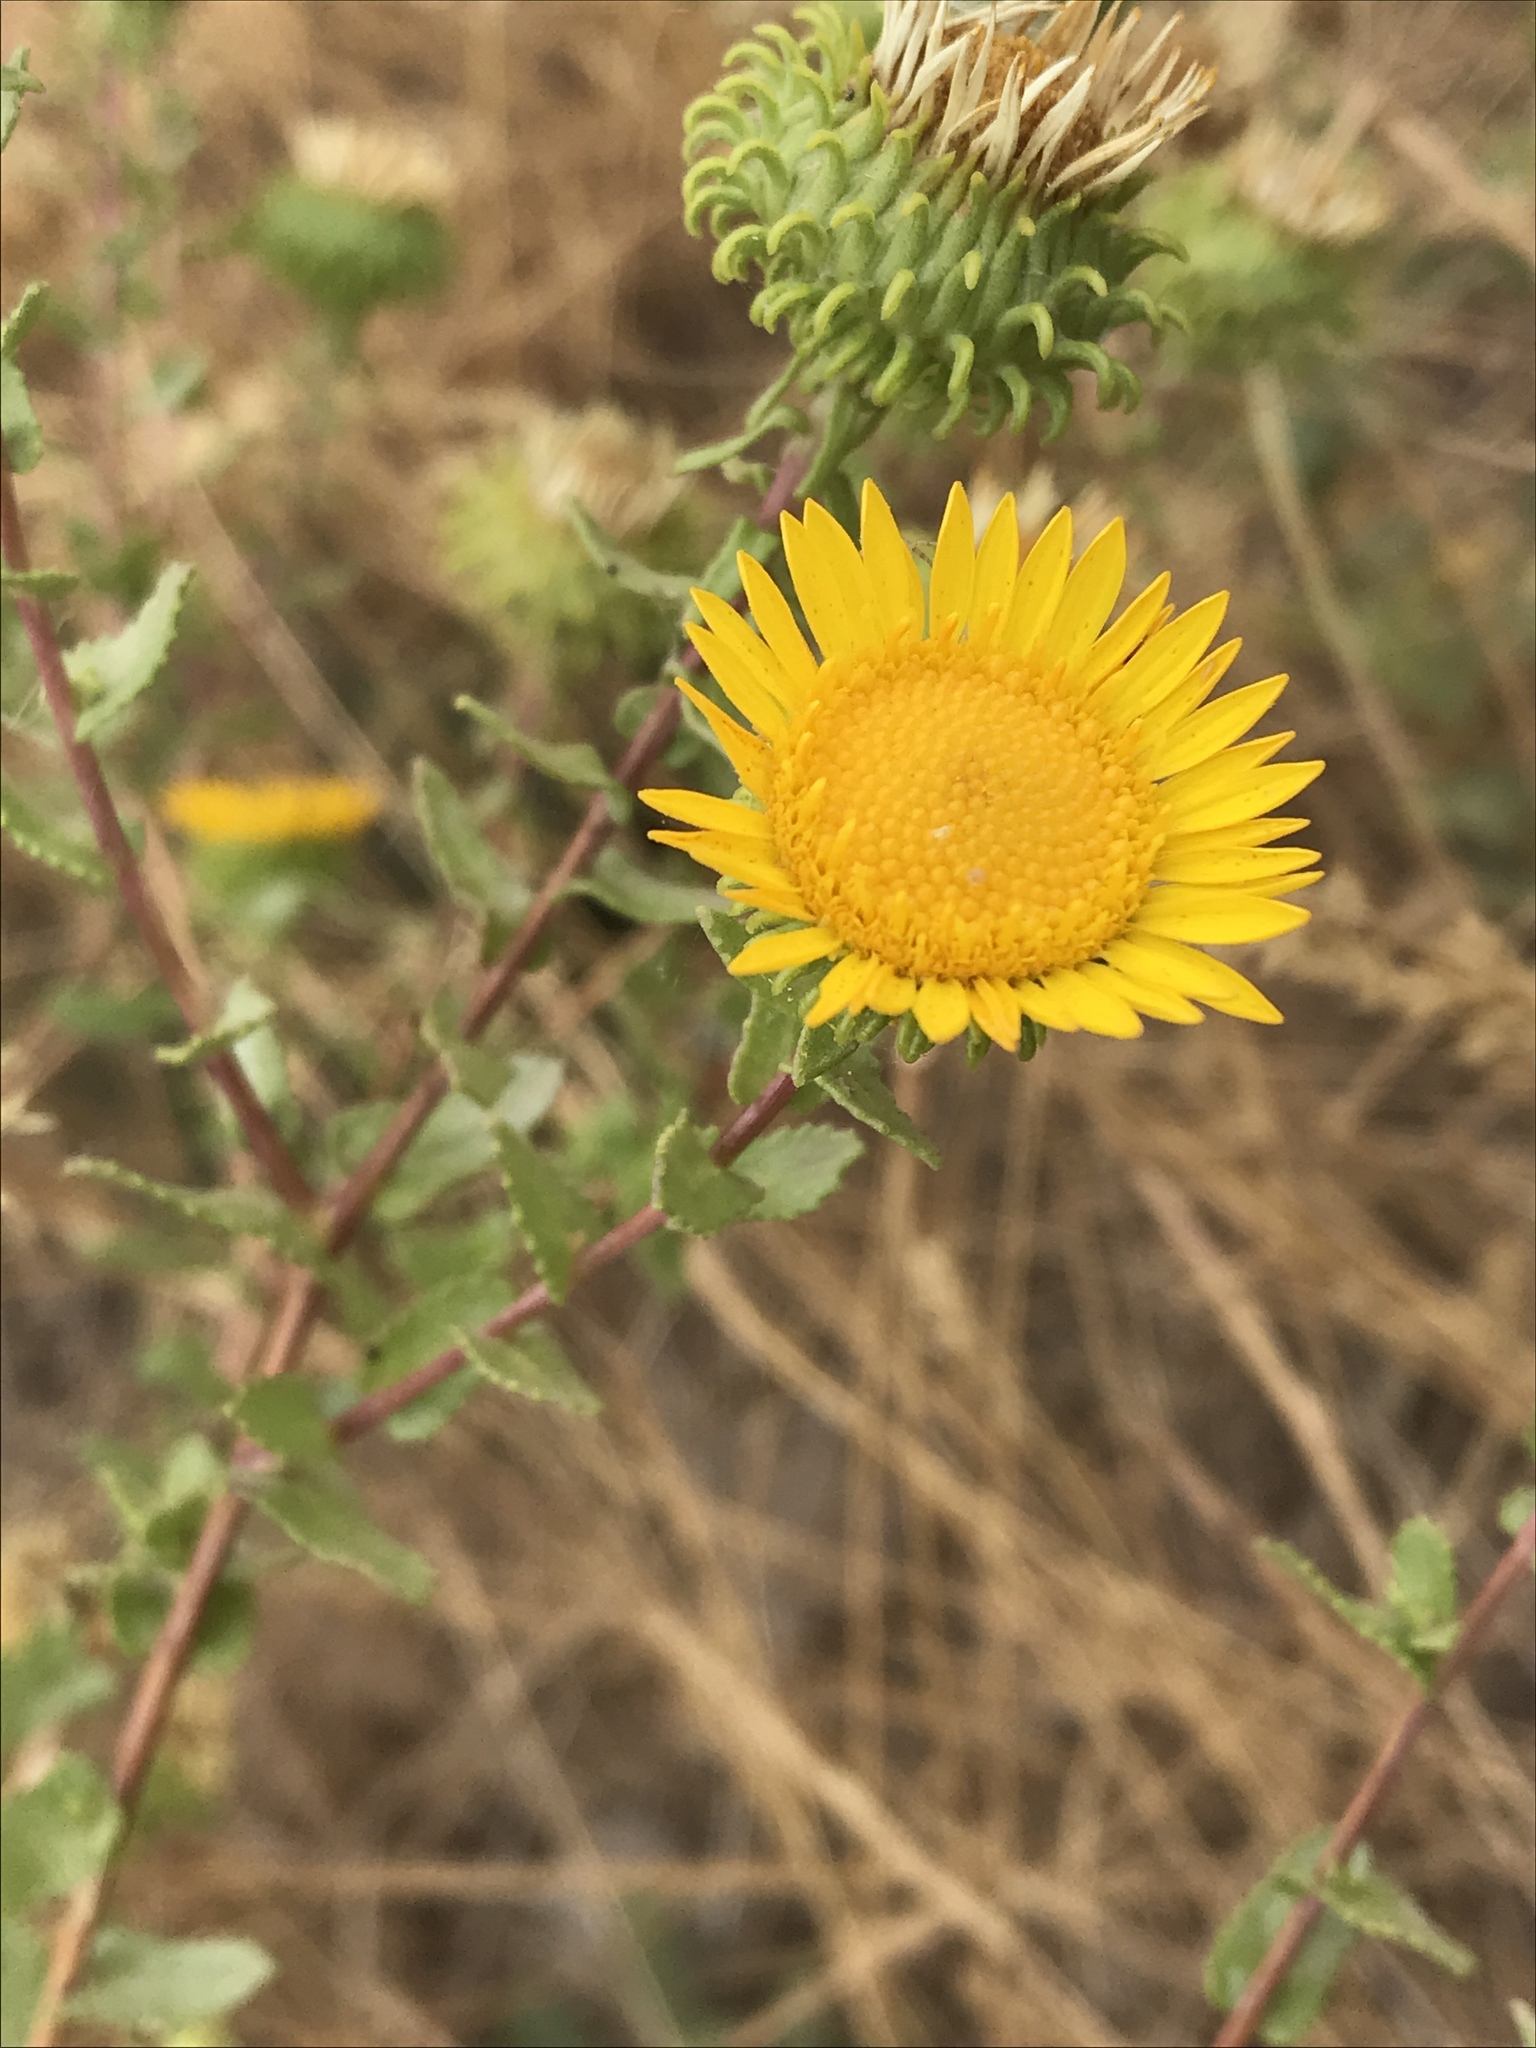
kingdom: Plantae
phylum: Tracheophyta
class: Magnoliopsida
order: Asterales
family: Asteraceae
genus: Grindelia
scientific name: Grindelia squarrosa
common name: Curly-cup gumweed
